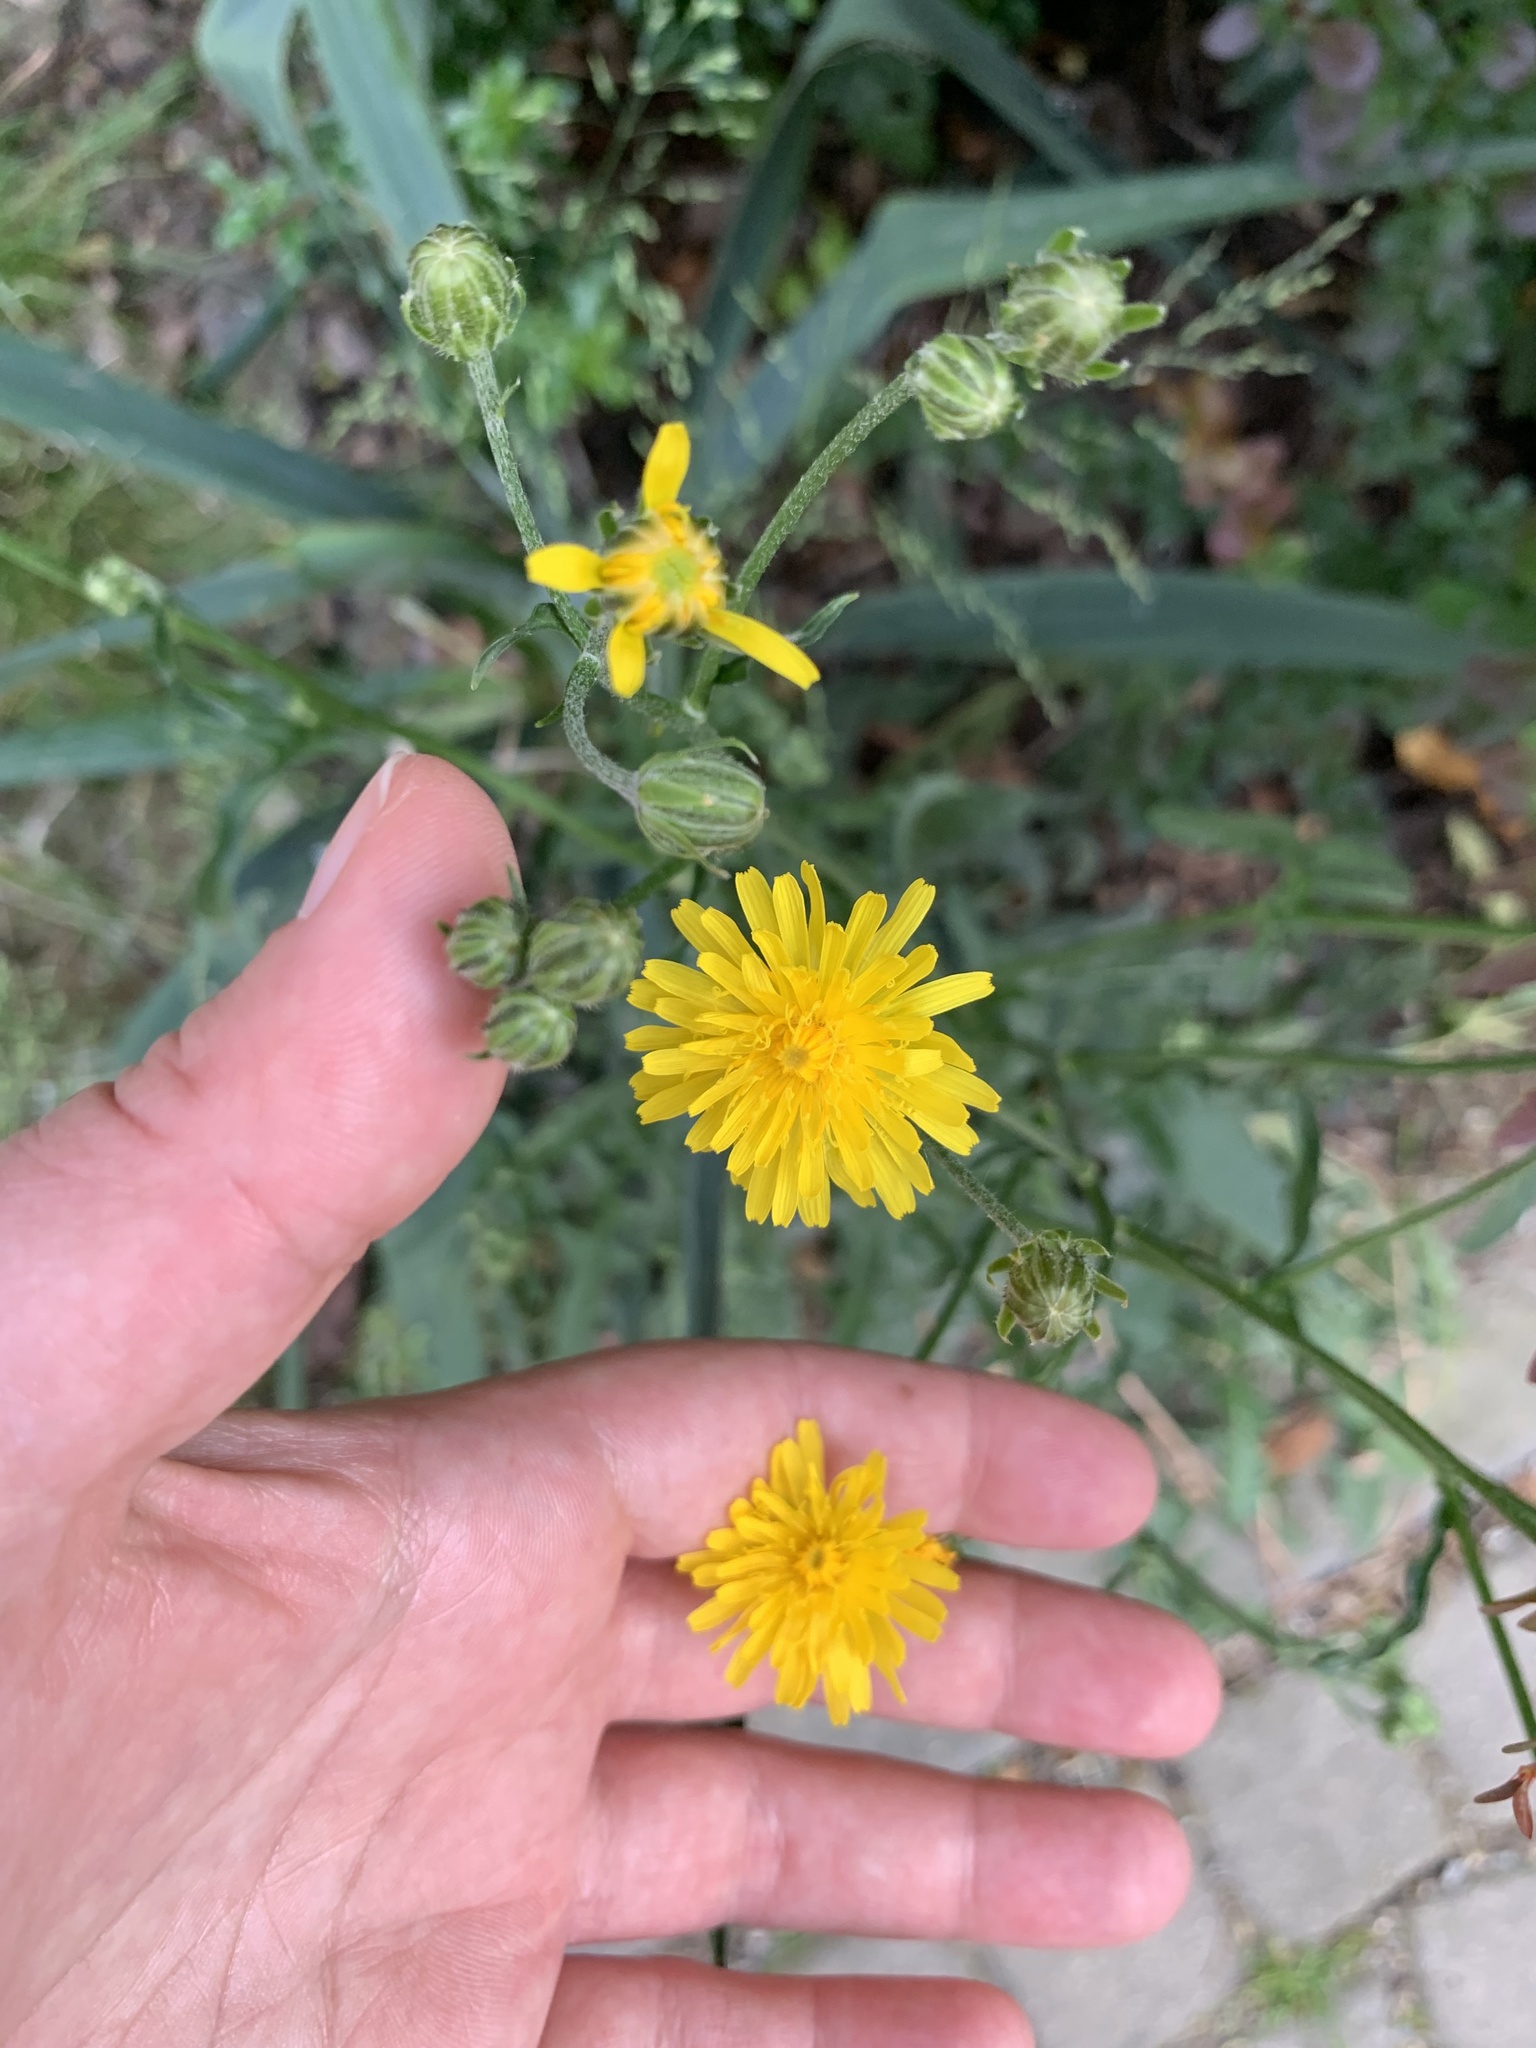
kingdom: Plantae
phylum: Tracheophyta
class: Magnoliopsida
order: Asterales
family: Asteraceae
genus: Crepis
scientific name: Crepis biennis
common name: Rough hawk's-beard
